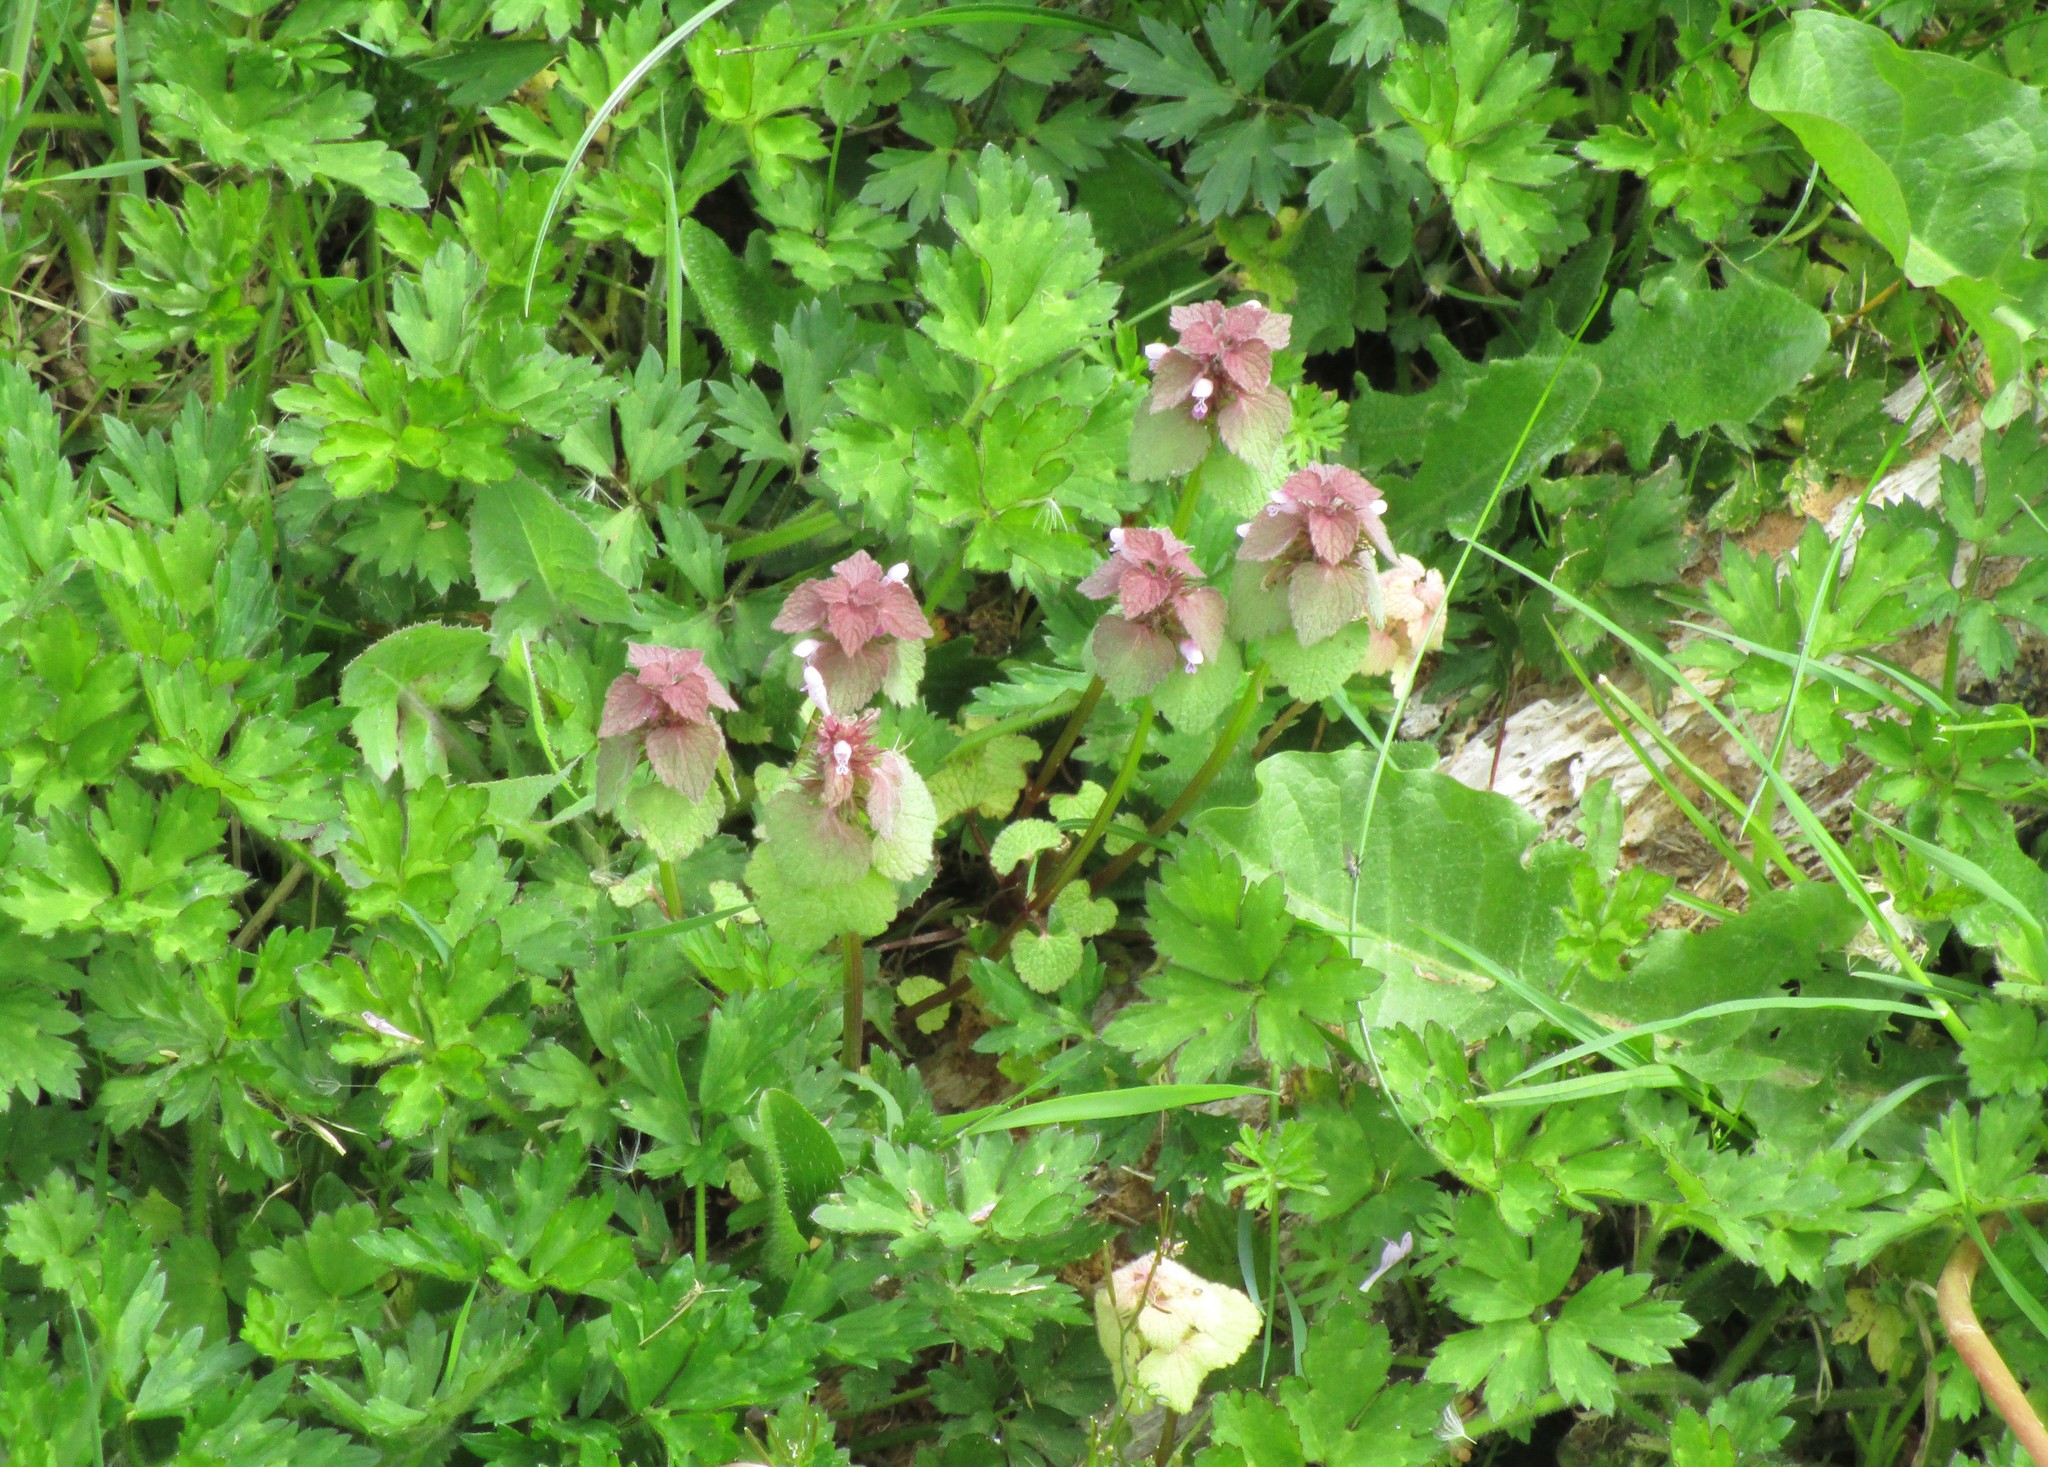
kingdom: Plantae
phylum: Tracheophyta
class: Magnoliopsida
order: Lamiales
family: Lamiaceae
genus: Lamium
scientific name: Lamium purpureum
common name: Red dead-nettle
